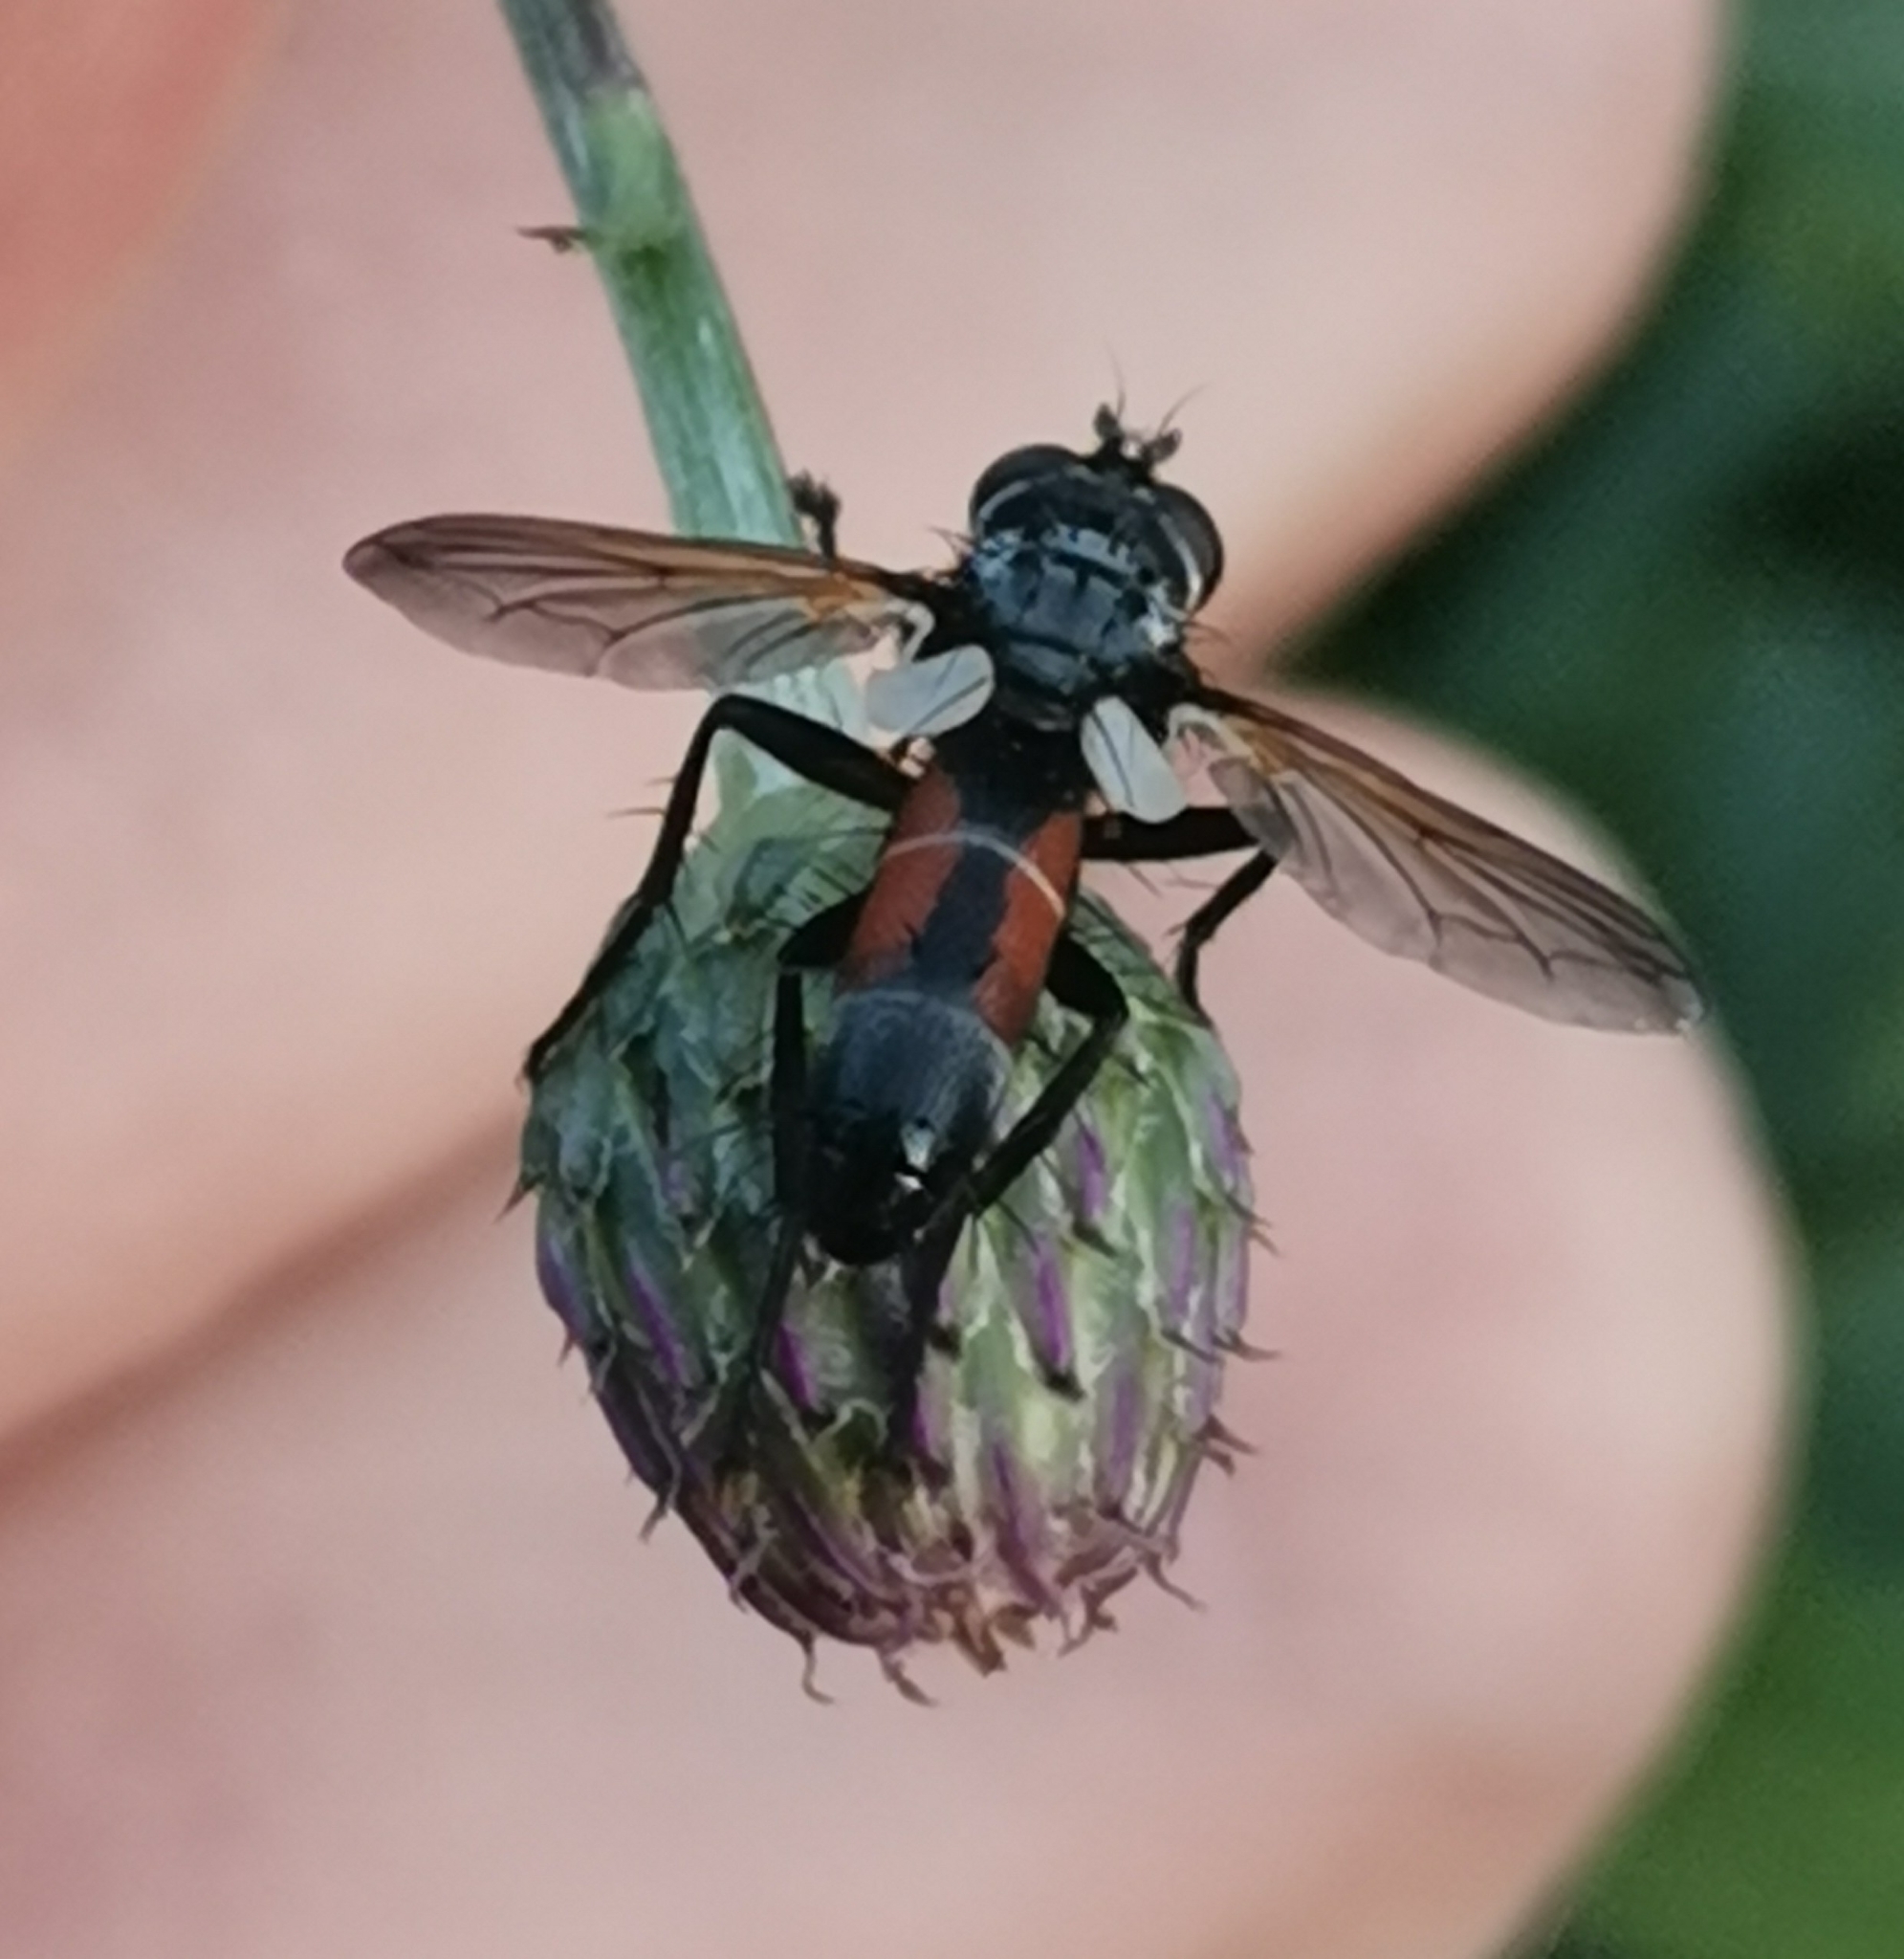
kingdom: Animalia
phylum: Arthropoda
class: Insecta
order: Diptera
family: Tachinidae
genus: Cylindromyia
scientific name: Cylindromyia brassicaria
